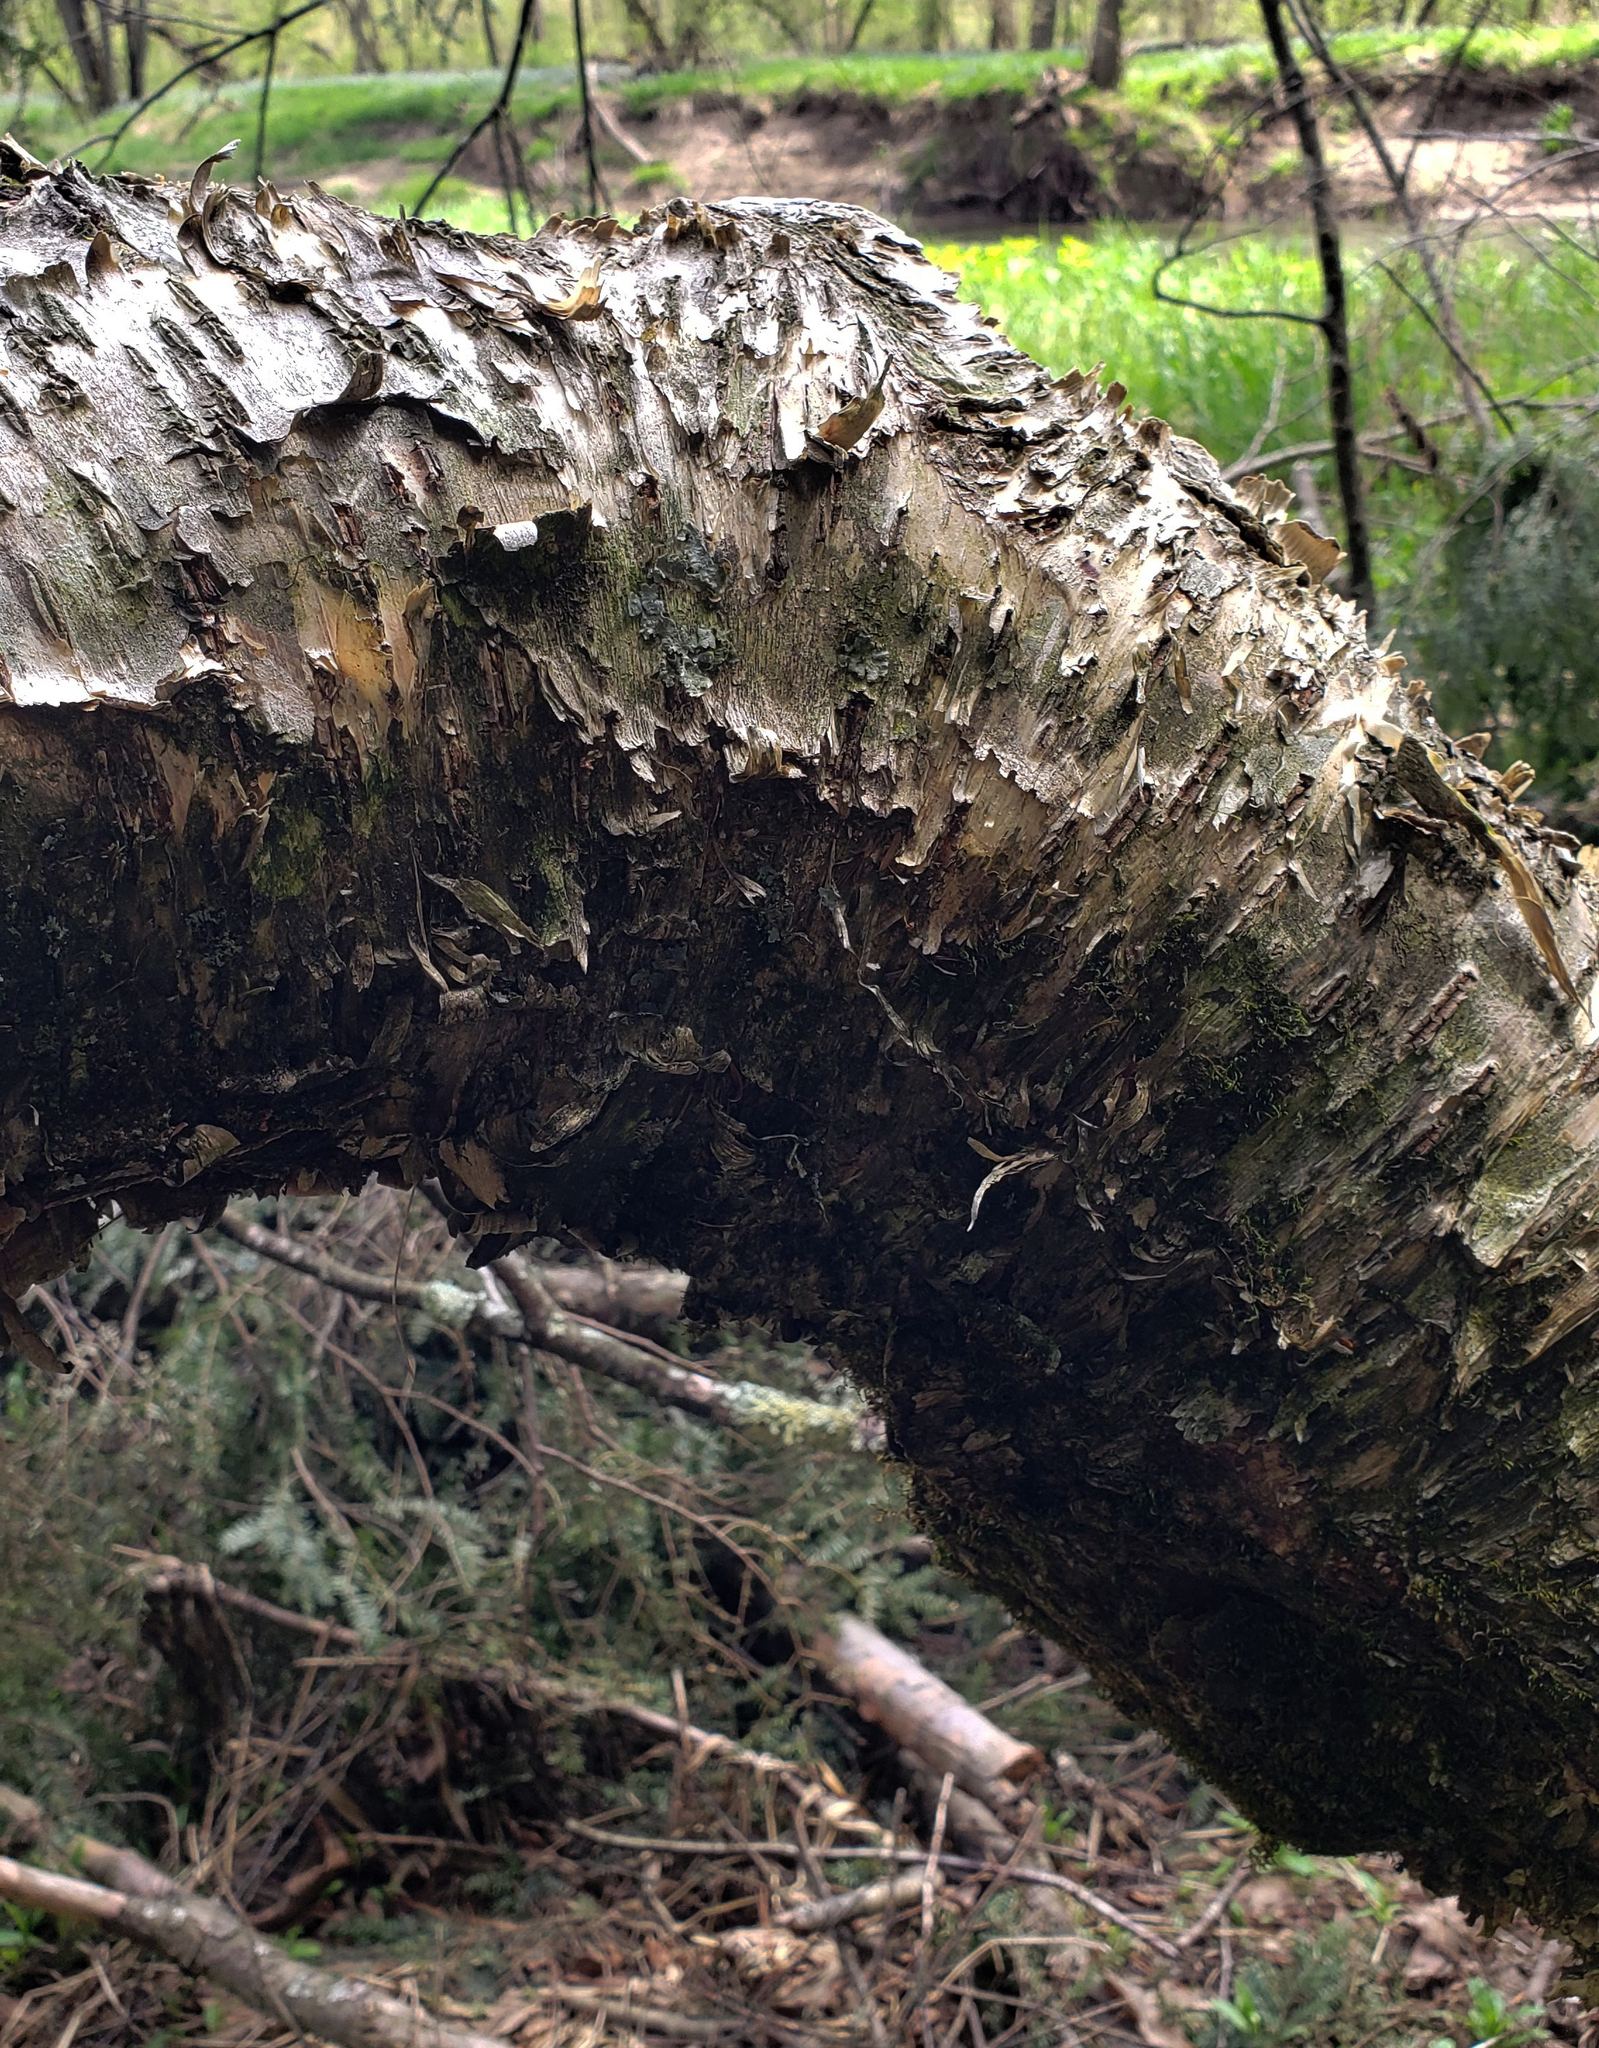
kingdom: Plantae
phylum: Tracheophyta
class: Magnoliopsida
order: Fagales
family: Betulaceae
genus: Betula
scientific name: Betula alleghaniensis
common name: Yellow birch
